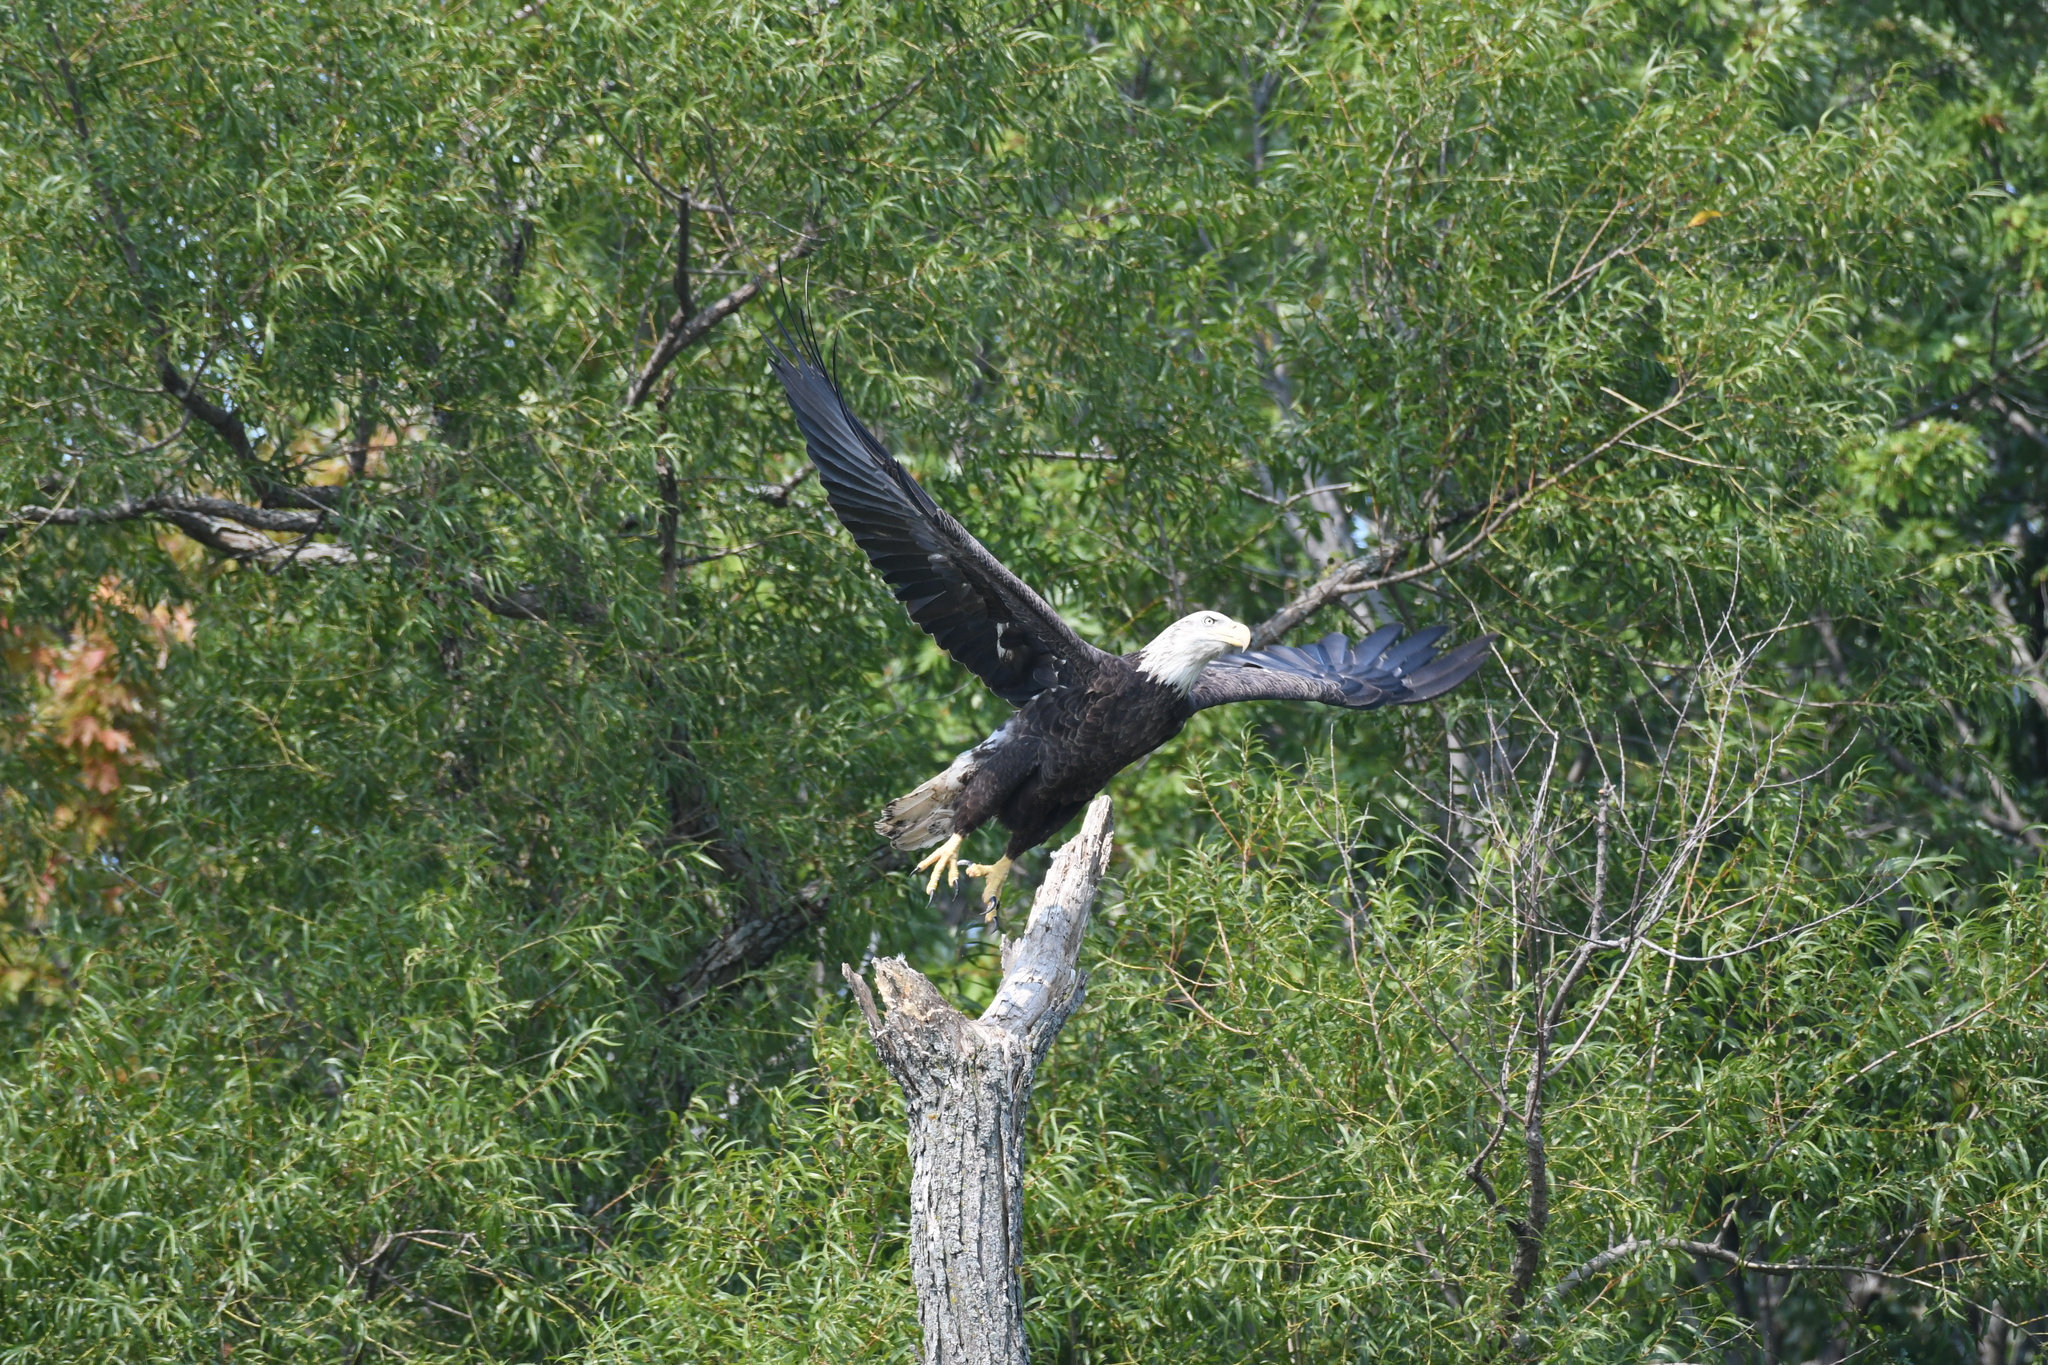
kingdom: Animalia
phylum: Chordata
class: Aves
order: Accipitriformes
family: Accipitridae
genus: Haliaeetus
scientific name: Haliaeetus leucocephalus
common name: Bald eagle
